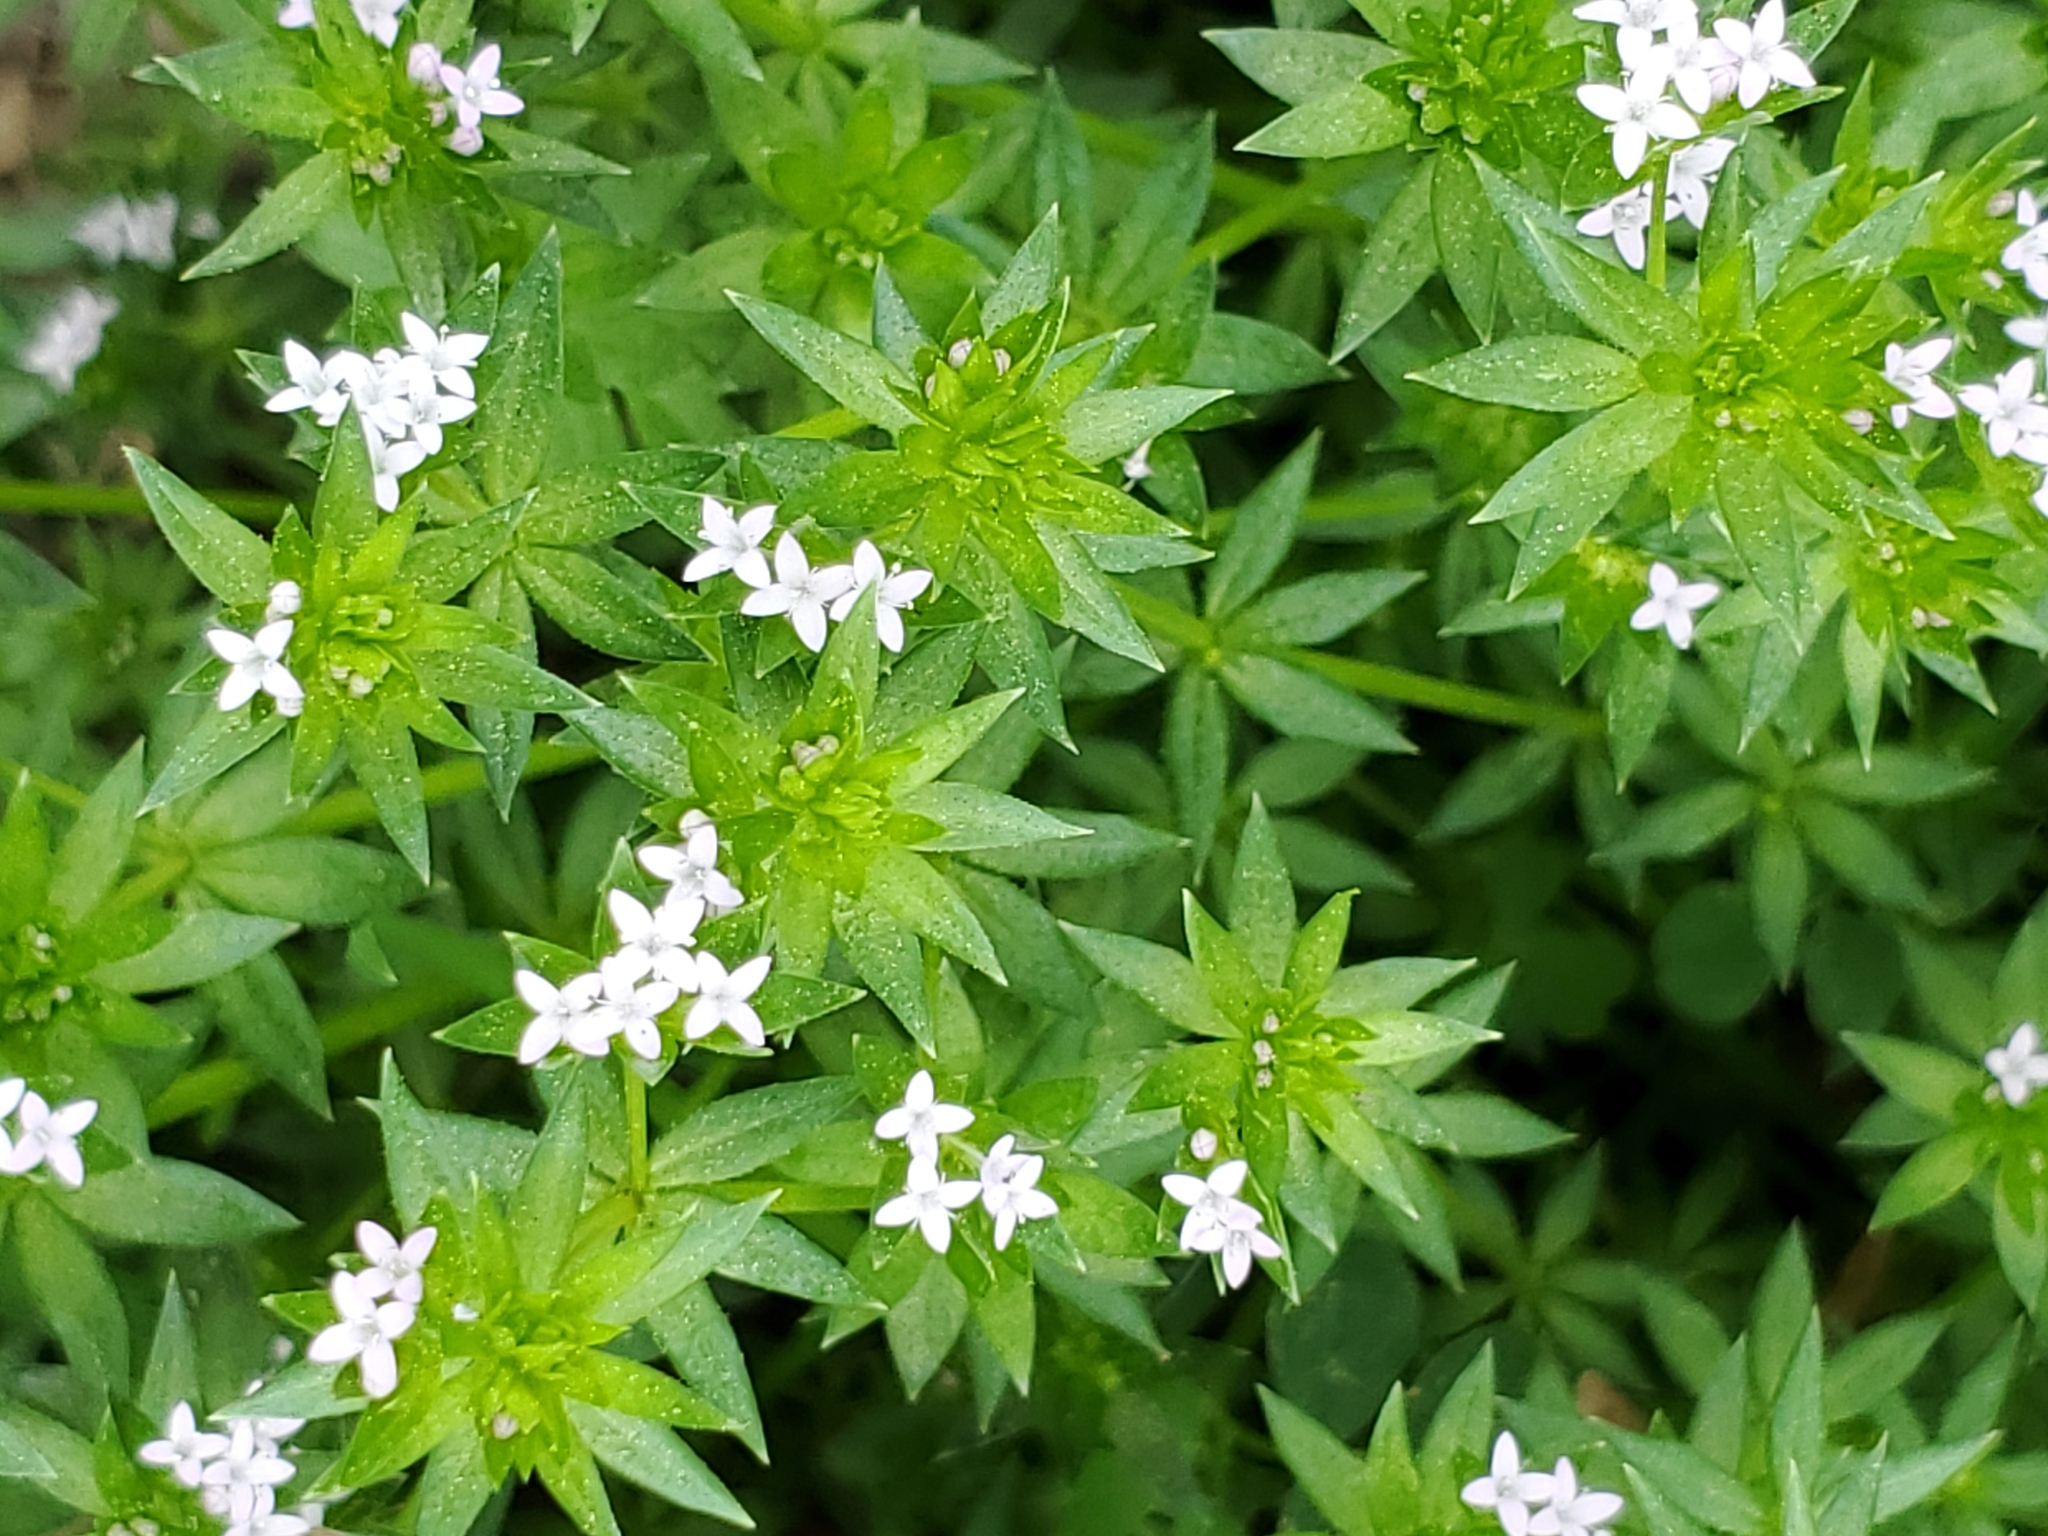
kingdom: Plantae
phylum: Tracheophyta
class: Magnoliopsida
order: Gentianales
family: Rubiaceae
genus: Sherardia
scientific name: Sherardia arvensis
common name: Field madder
